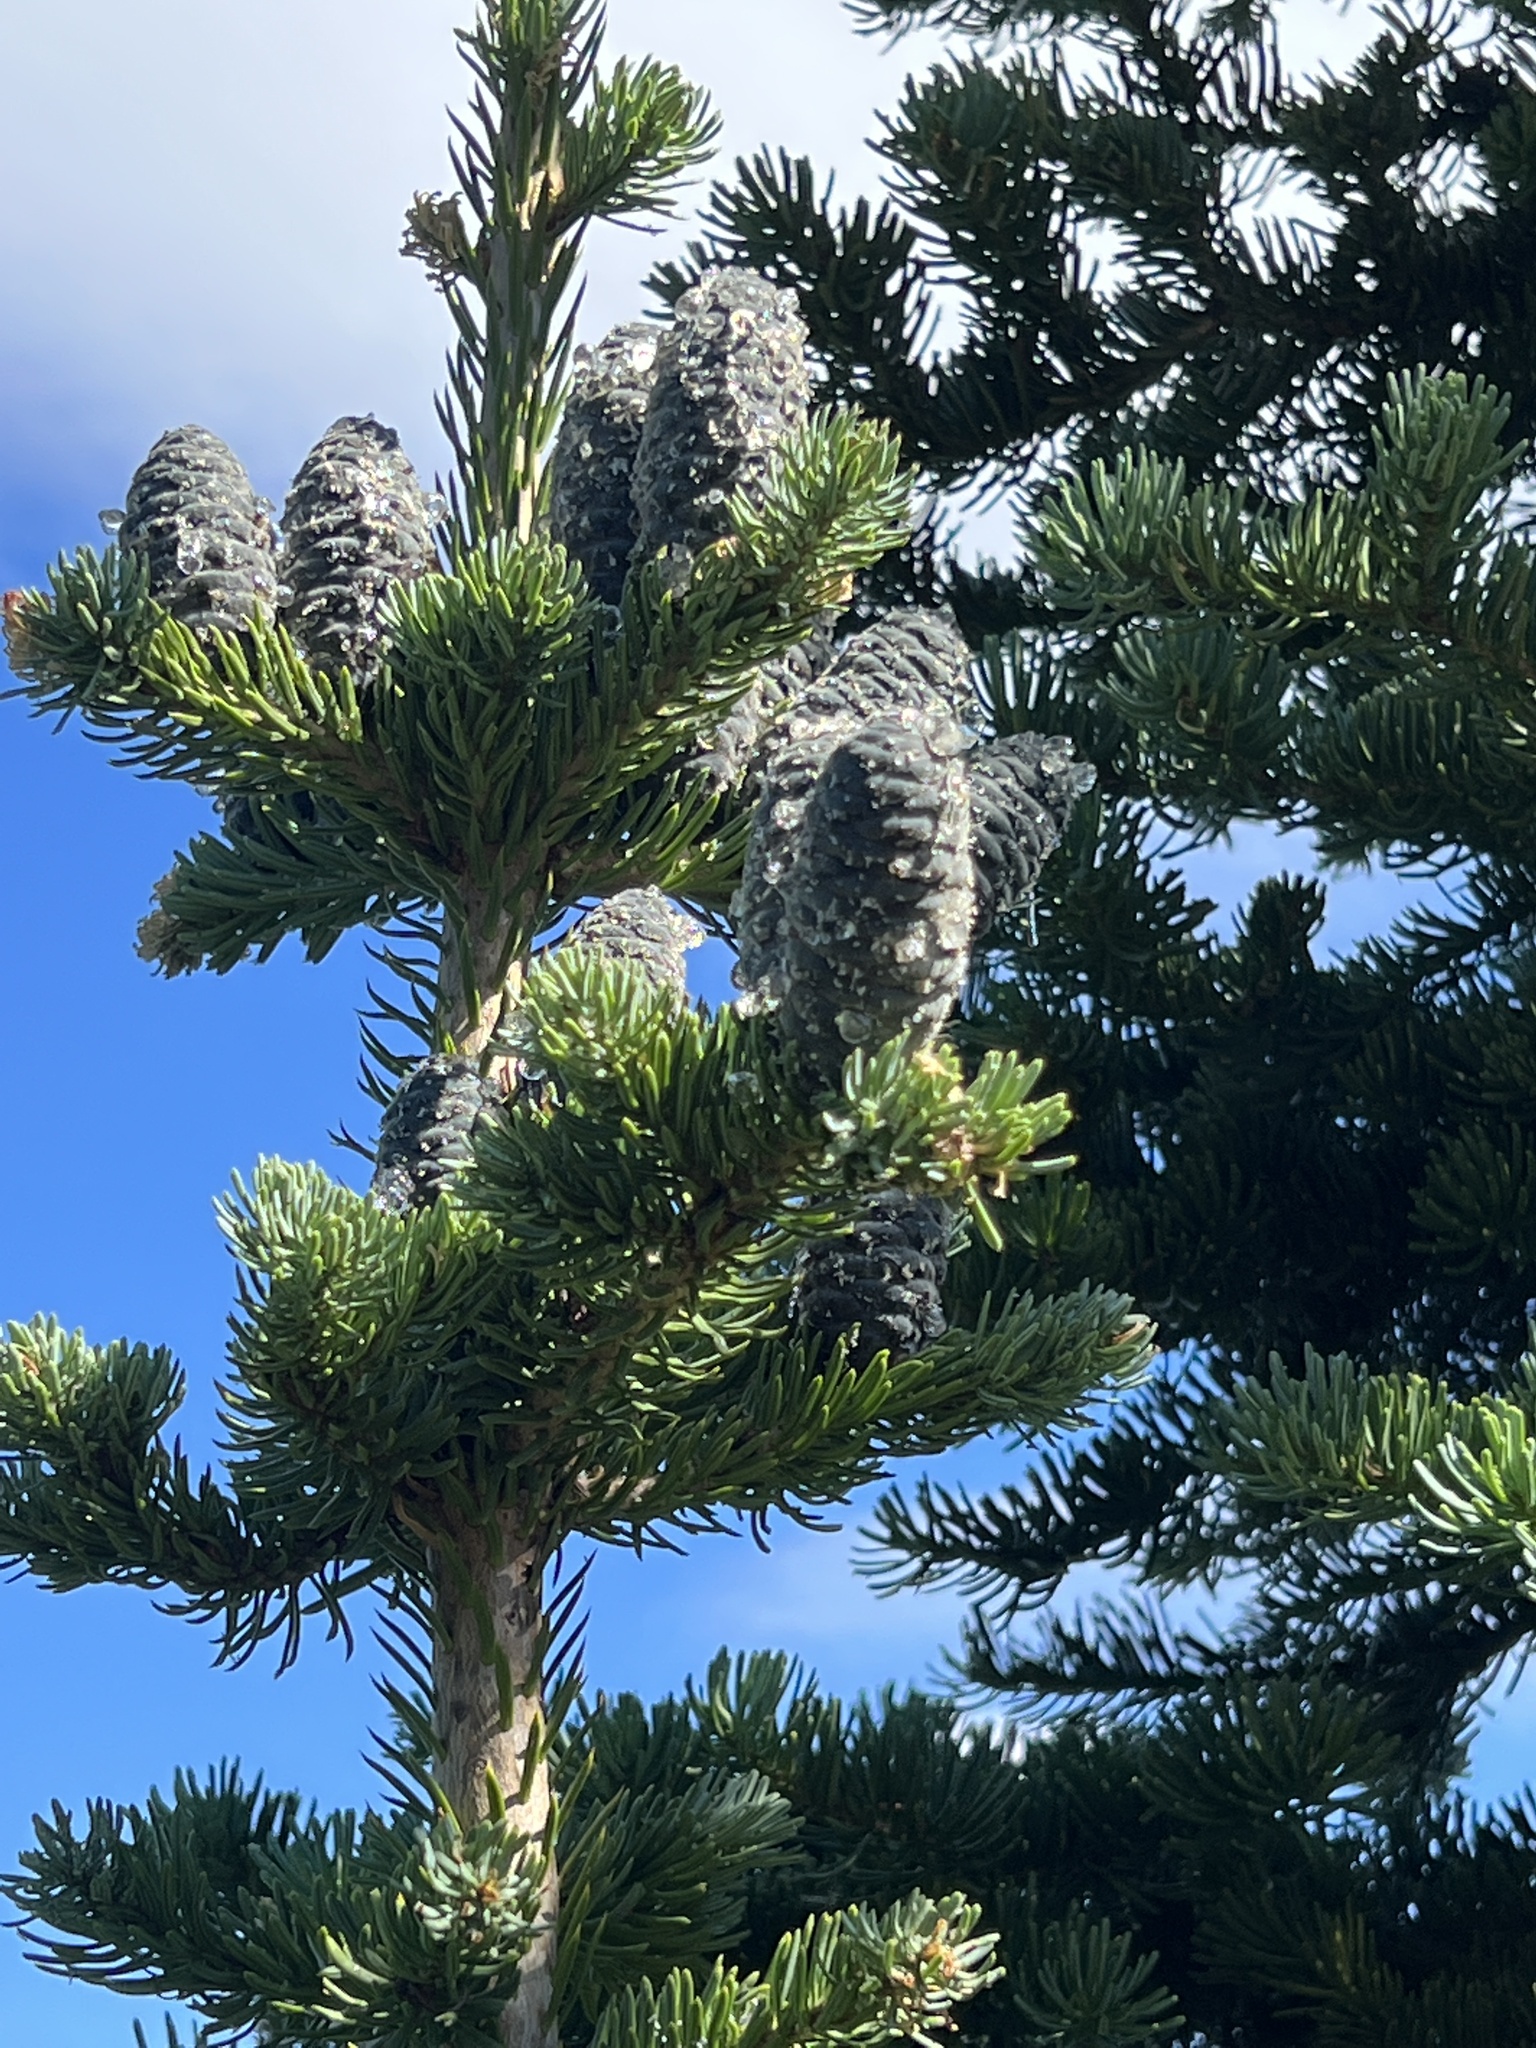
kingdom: Plantae
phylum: Tracheophyta
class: Pinopsida
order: Pinales
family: Pinaceae
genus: Abies
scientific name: Abies lasiocarpa
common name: Subalpine fir
